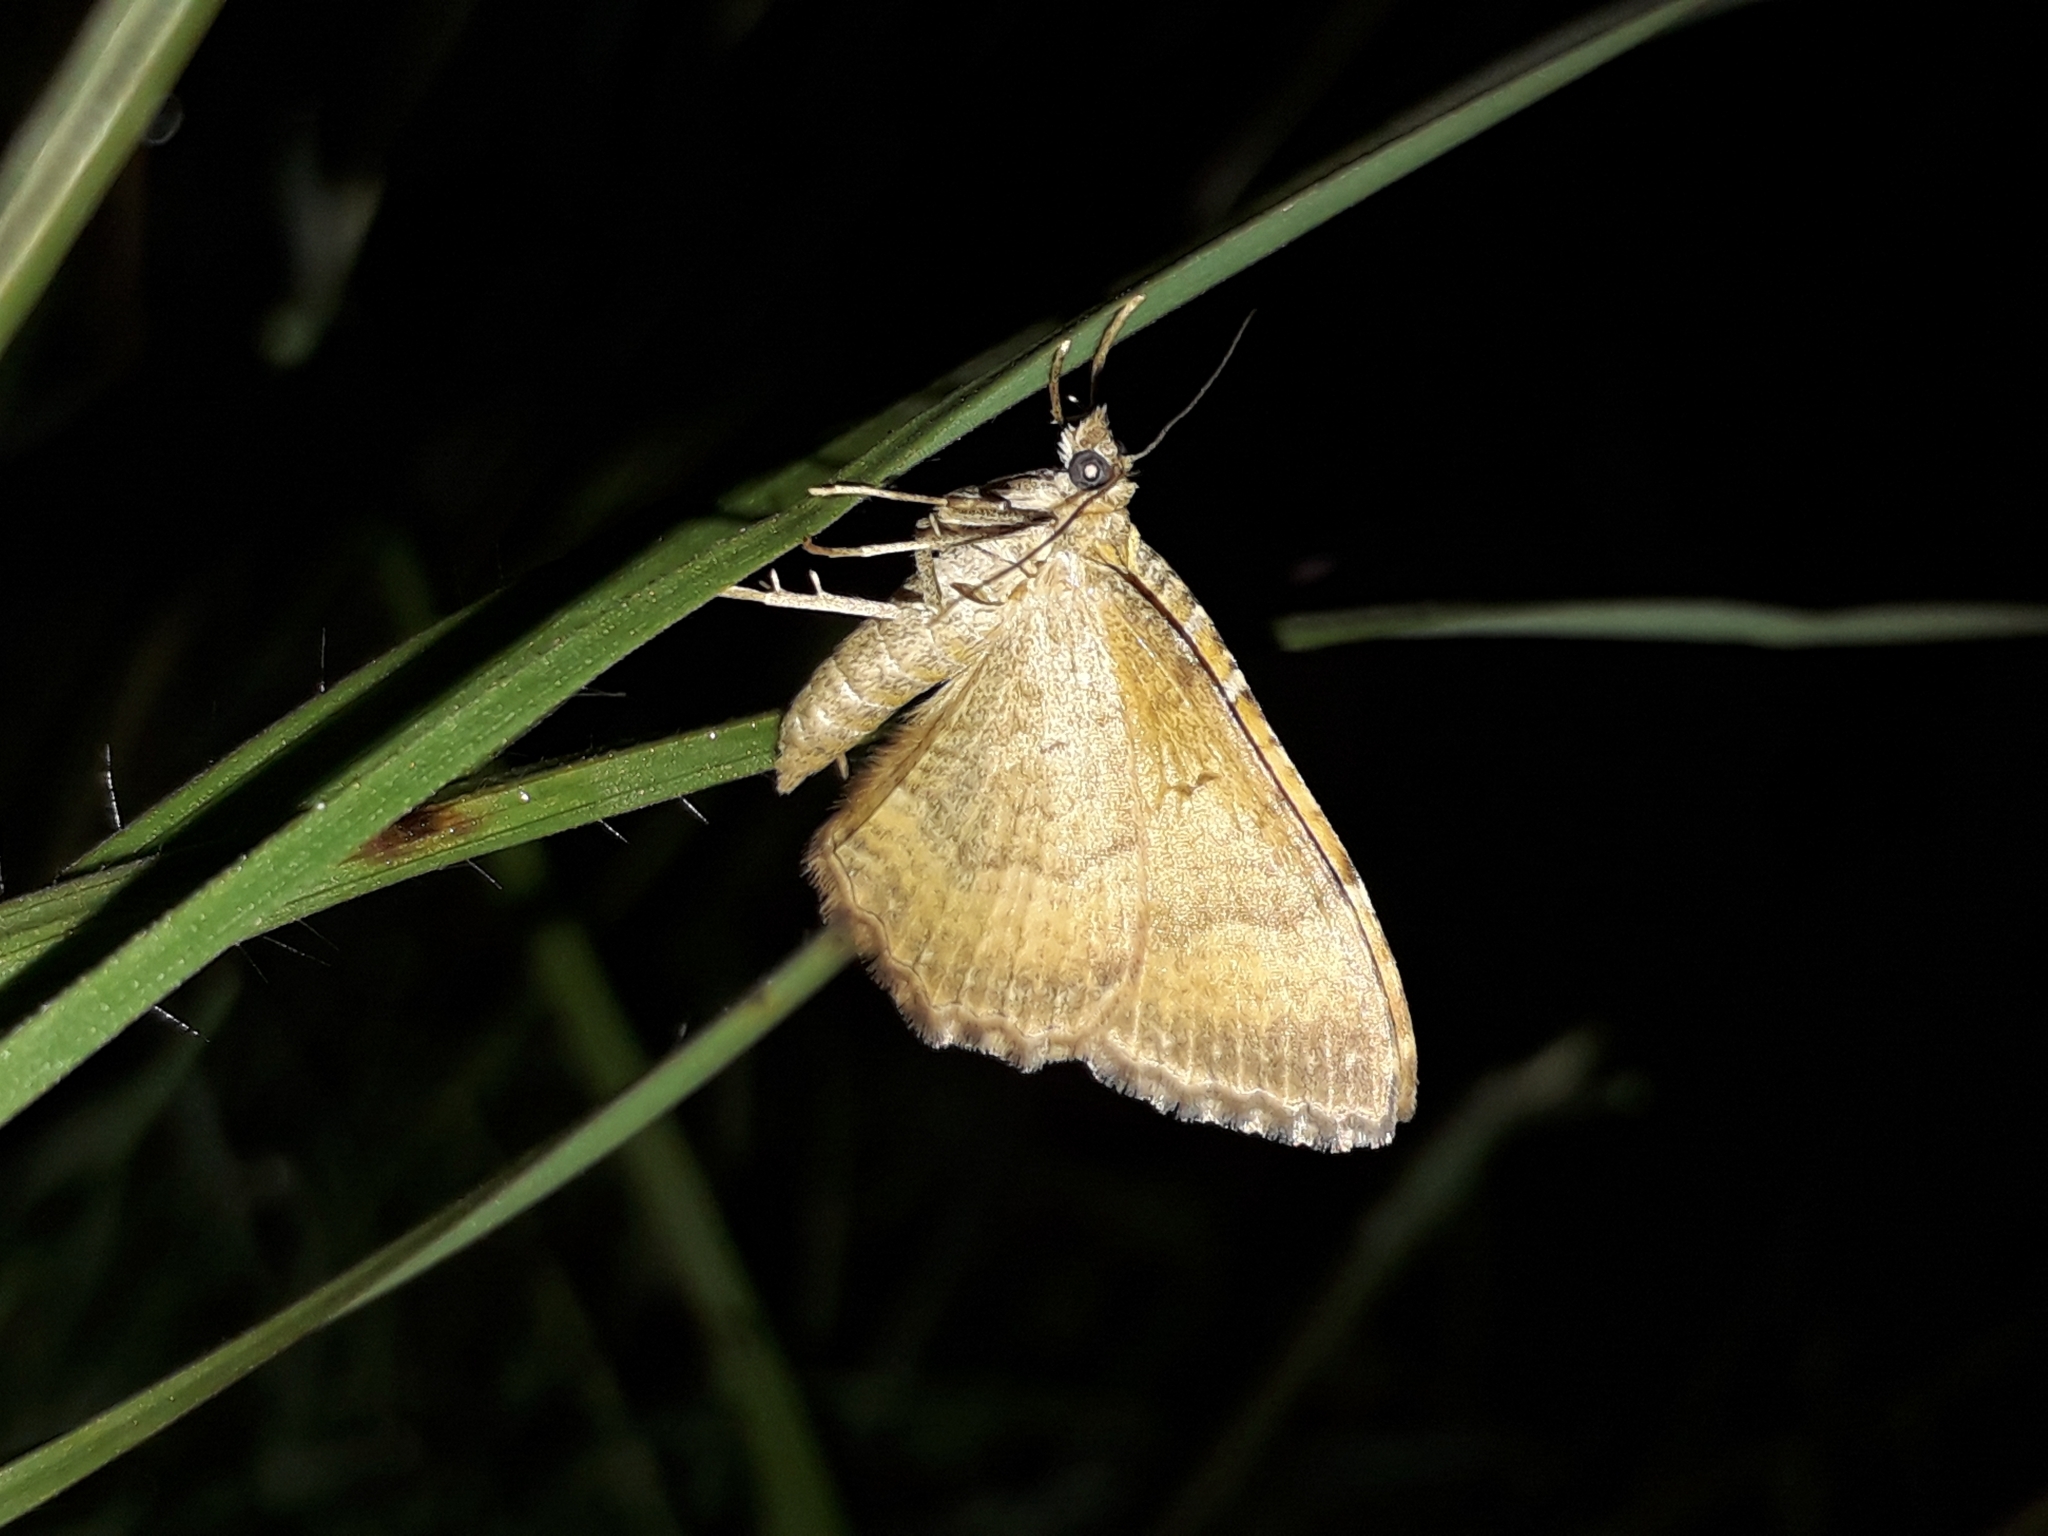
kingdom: Animalia
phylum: Arthropoda
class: Insecta
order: Lepidoptera
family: Geometridae
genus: Camptogramma
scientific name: Camptogramma bilineata
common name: Yellow shell
